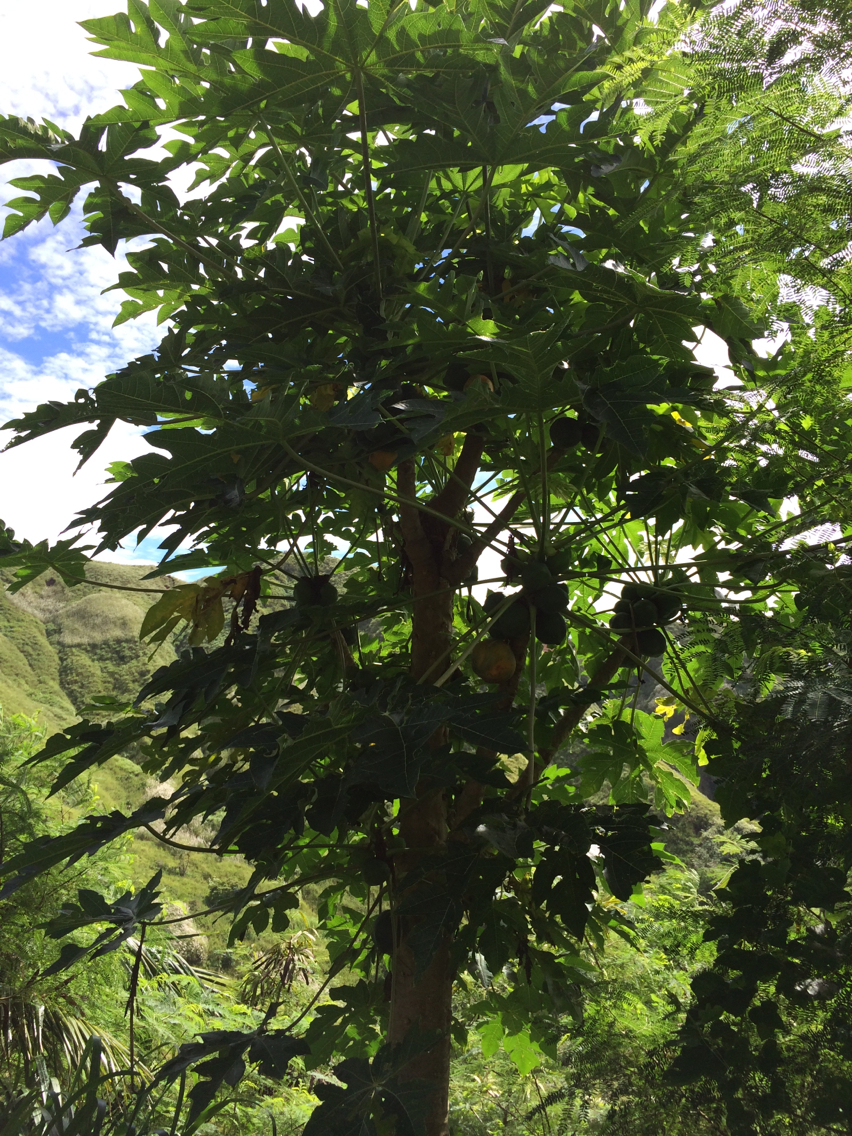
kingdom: Plantae
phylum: Tracheophyta
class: Magnoliopsida
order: Brassicales
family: Caricaceae
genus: Carica
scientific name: Carica papaya
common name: Papaya
